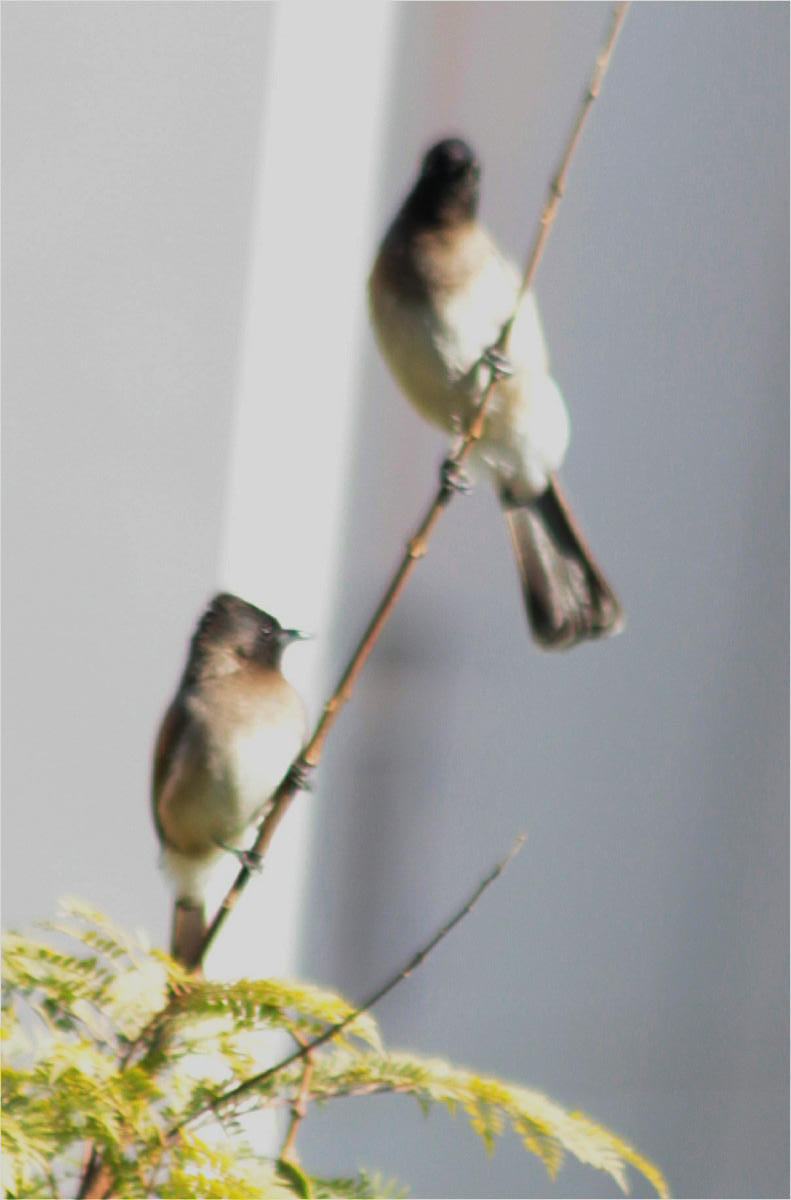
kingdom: Animalia
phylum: Chordata
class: Aves
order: Passeriformes
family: Pycnonotidae
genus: Pycnonotus
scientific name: Pycnonotus barbatus
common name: Common bulbul
